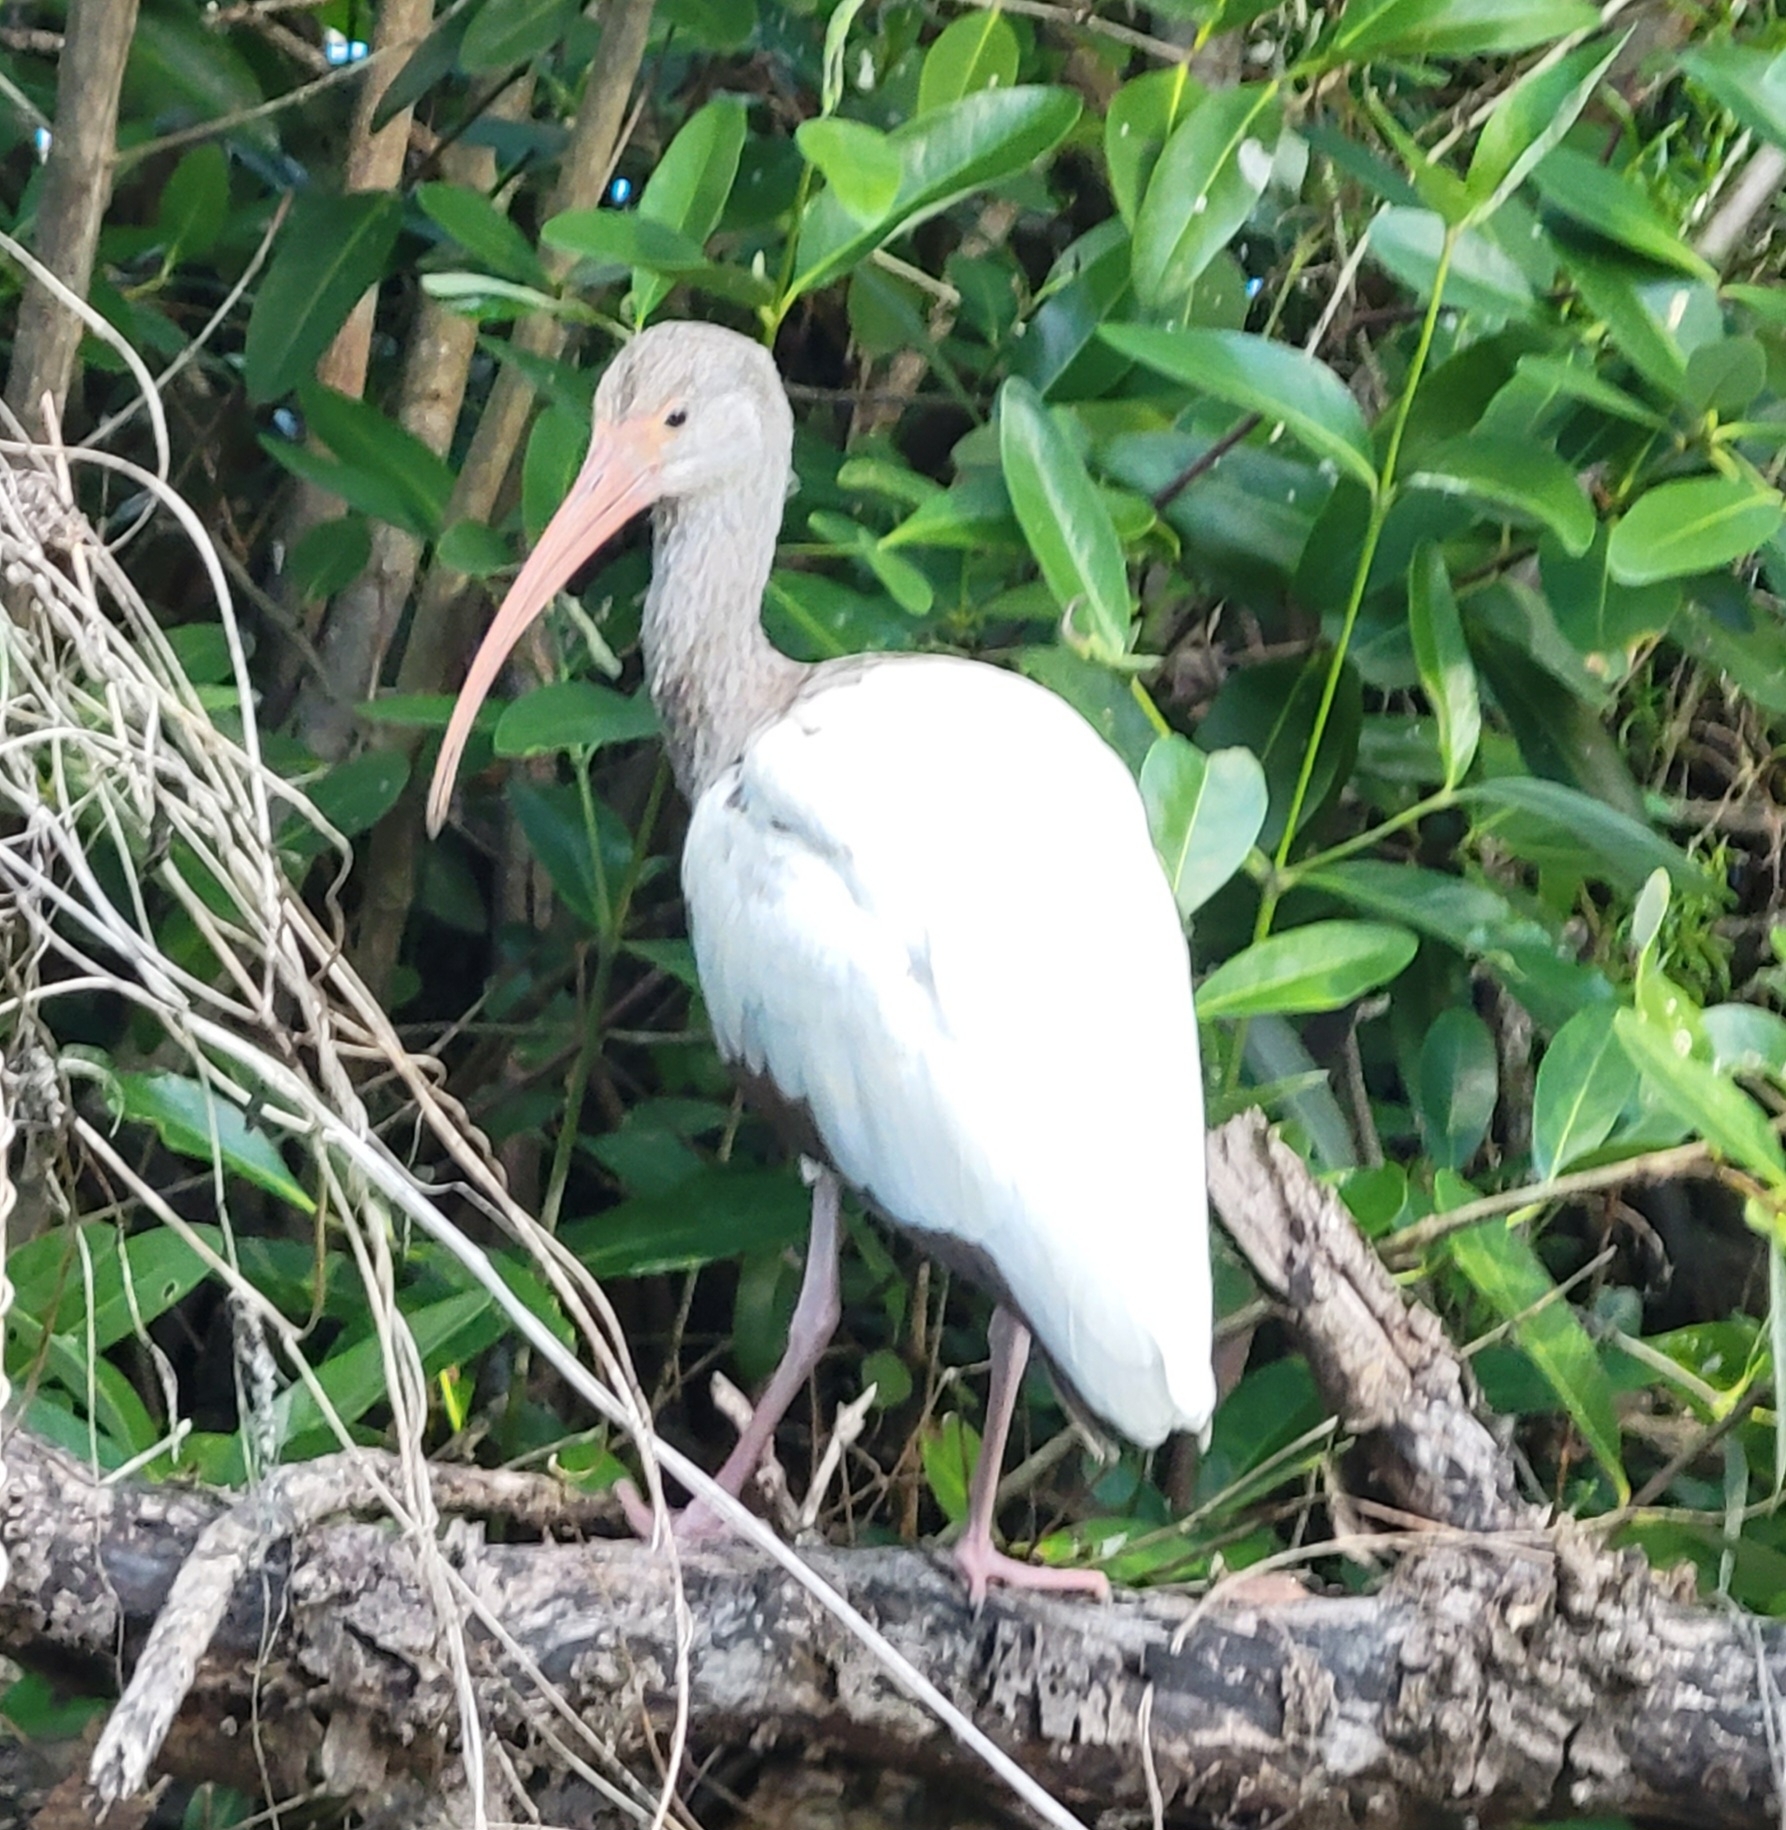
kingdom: Animalia
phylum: Chordata
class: Aves
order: Pelecaniformes
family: Threskiornithidae
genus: Eudocimus
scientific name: Eudocimus albus
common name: White ibis
